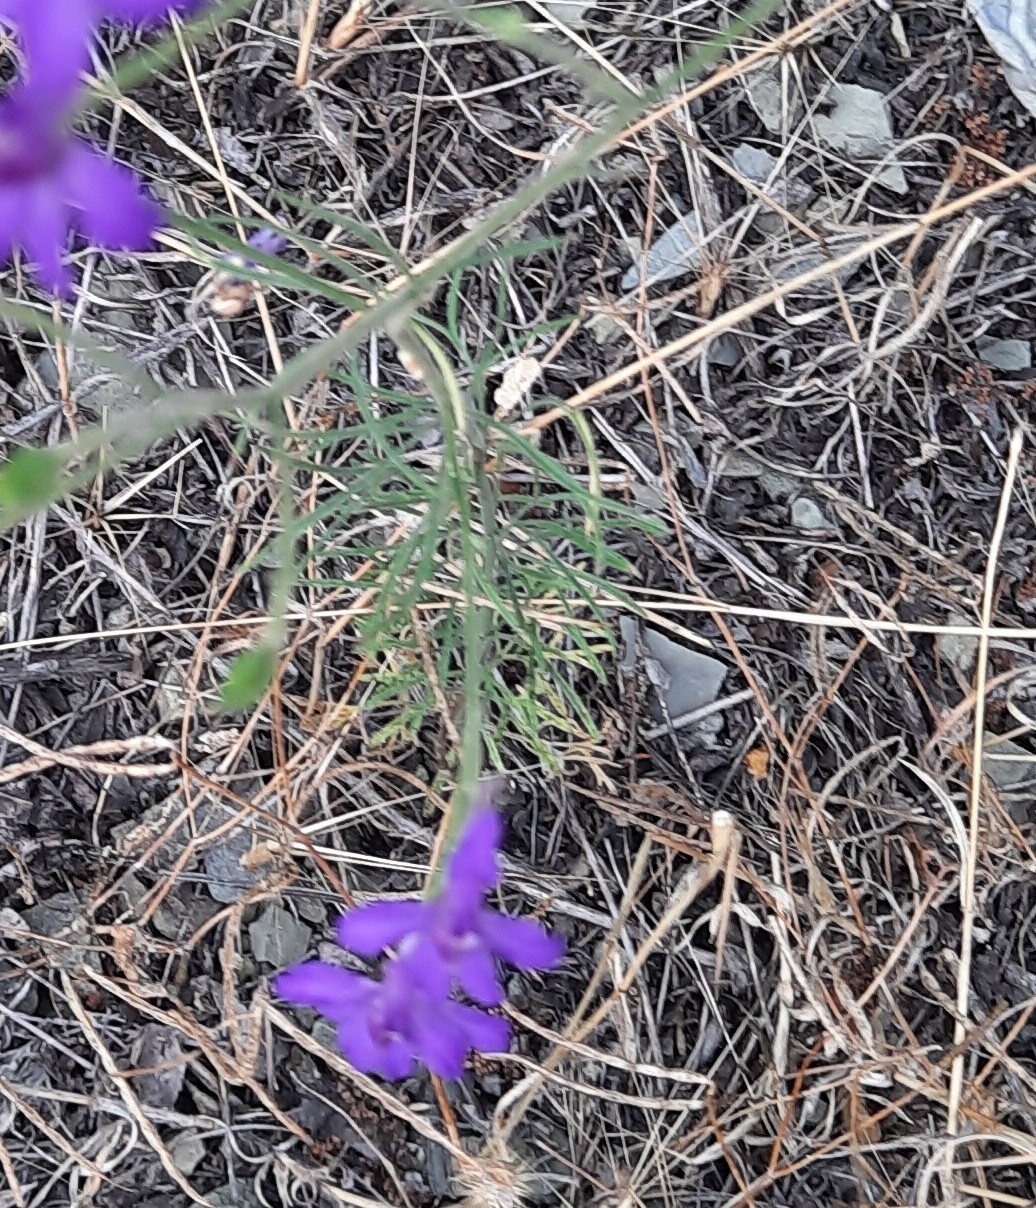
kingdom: Plantae
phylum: Tracheophyta
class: Magnoliopsida
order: Ranunculales
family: Ranunculaceae
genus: Delphinium
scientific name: Delphinium consolida
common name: Branching larkspur
